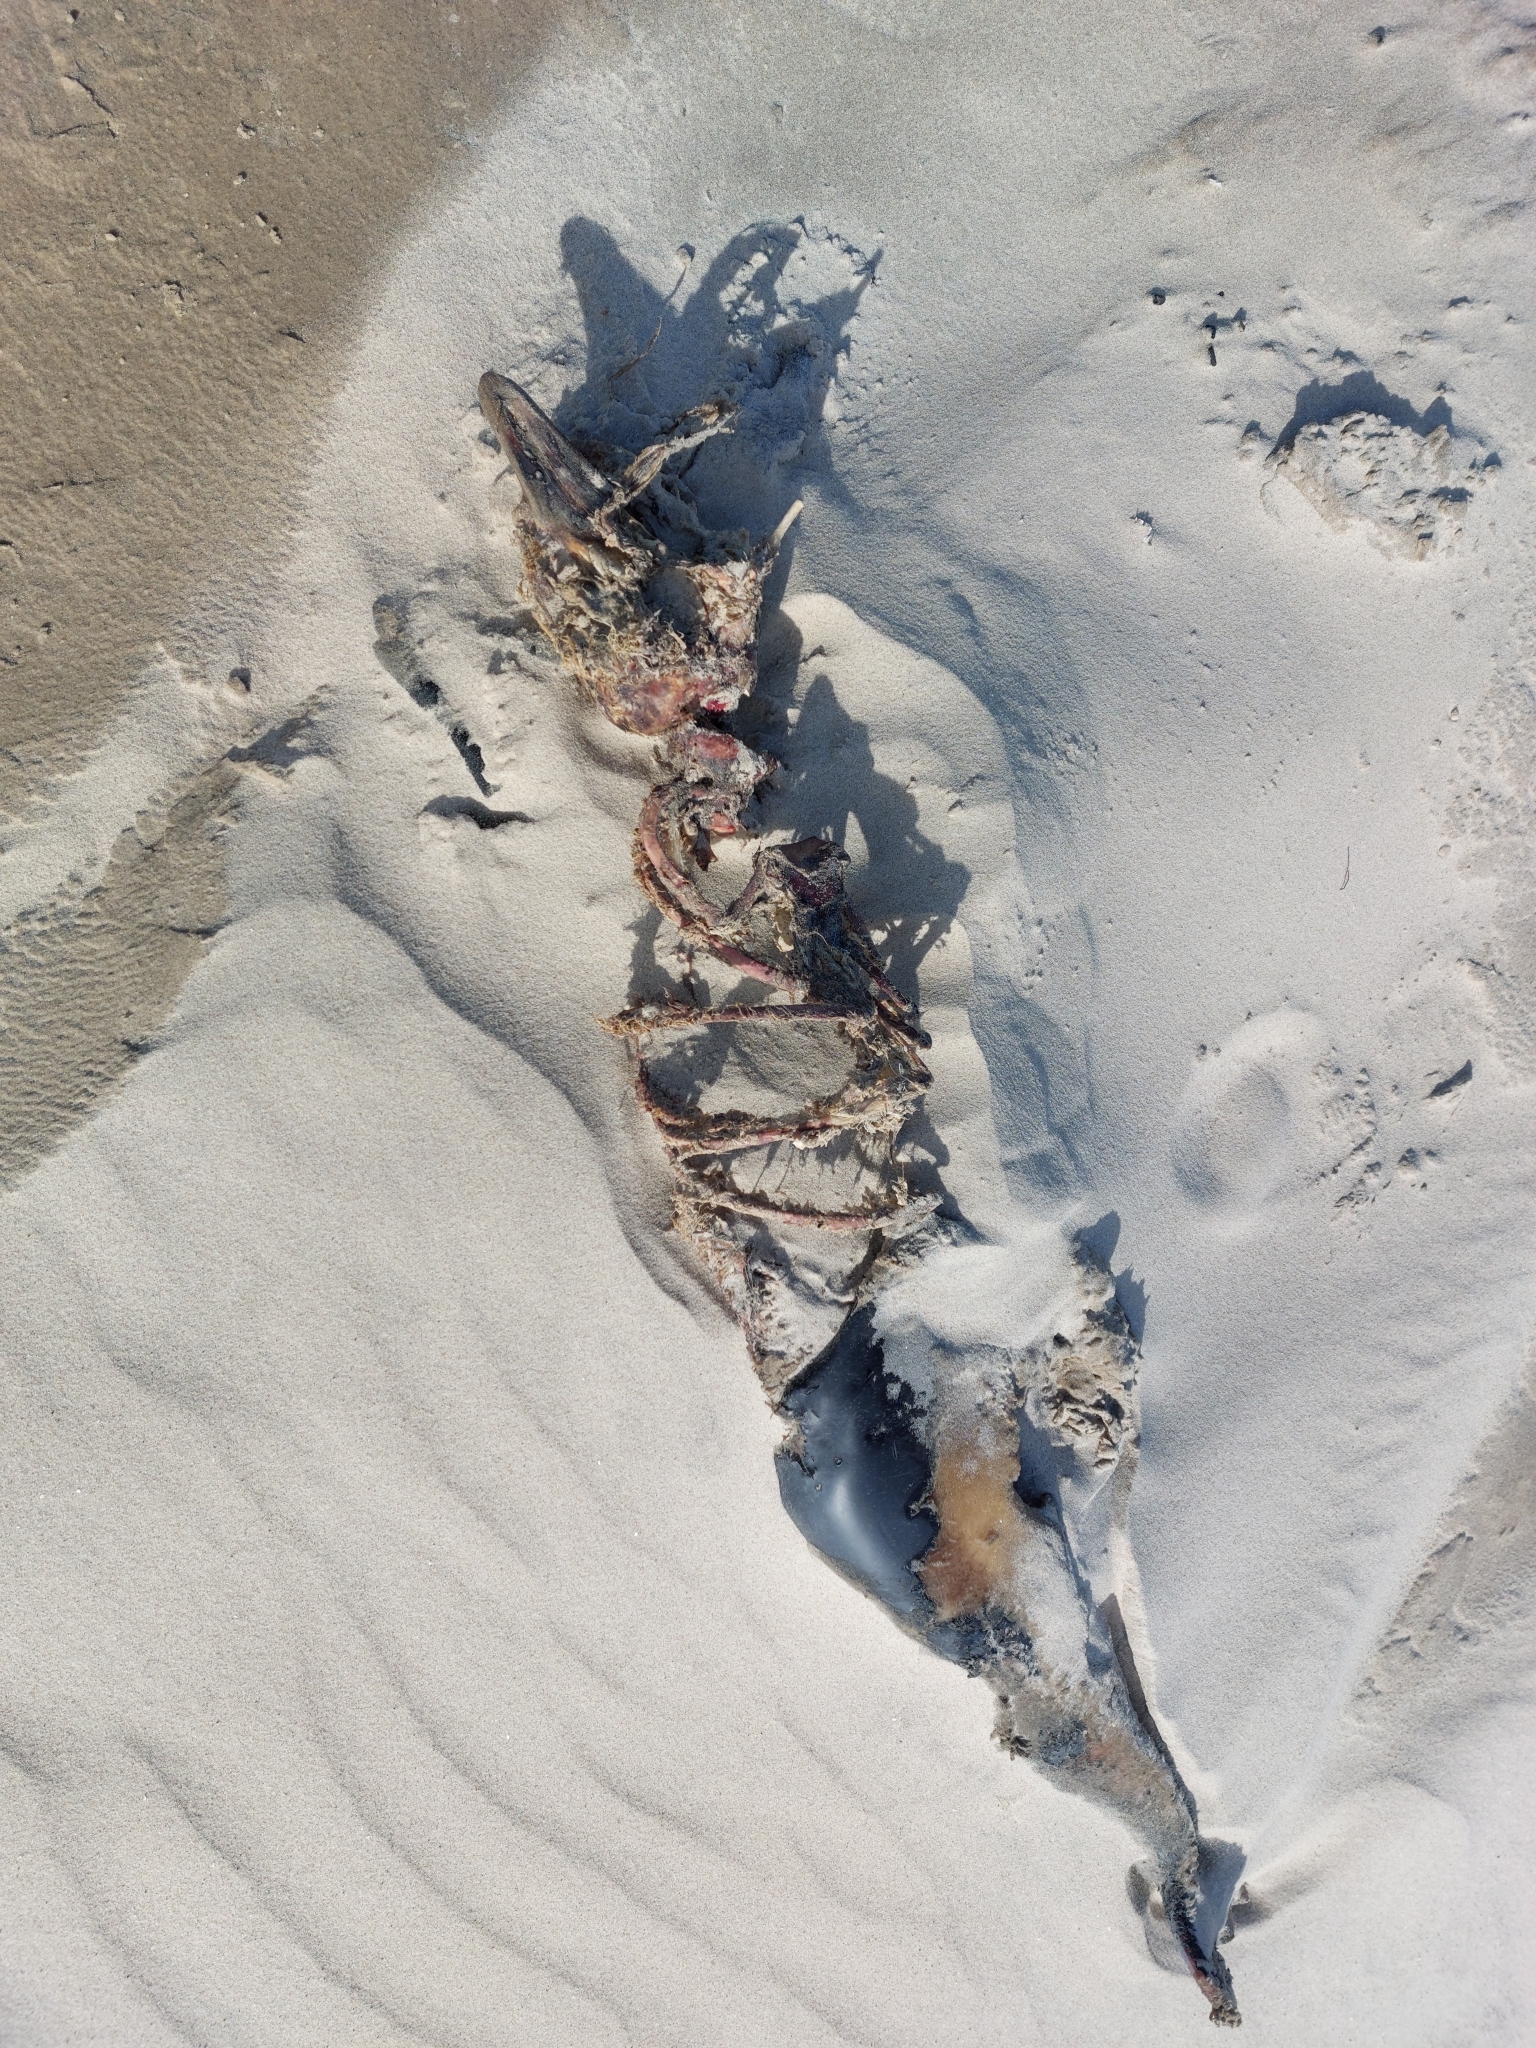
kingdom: Animalia
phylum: Chordata
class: Mammalia
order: Cetacea
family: Phocoenidae
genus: Phocoena
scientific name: Phocoena phocoena
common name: Harbor porpoise
